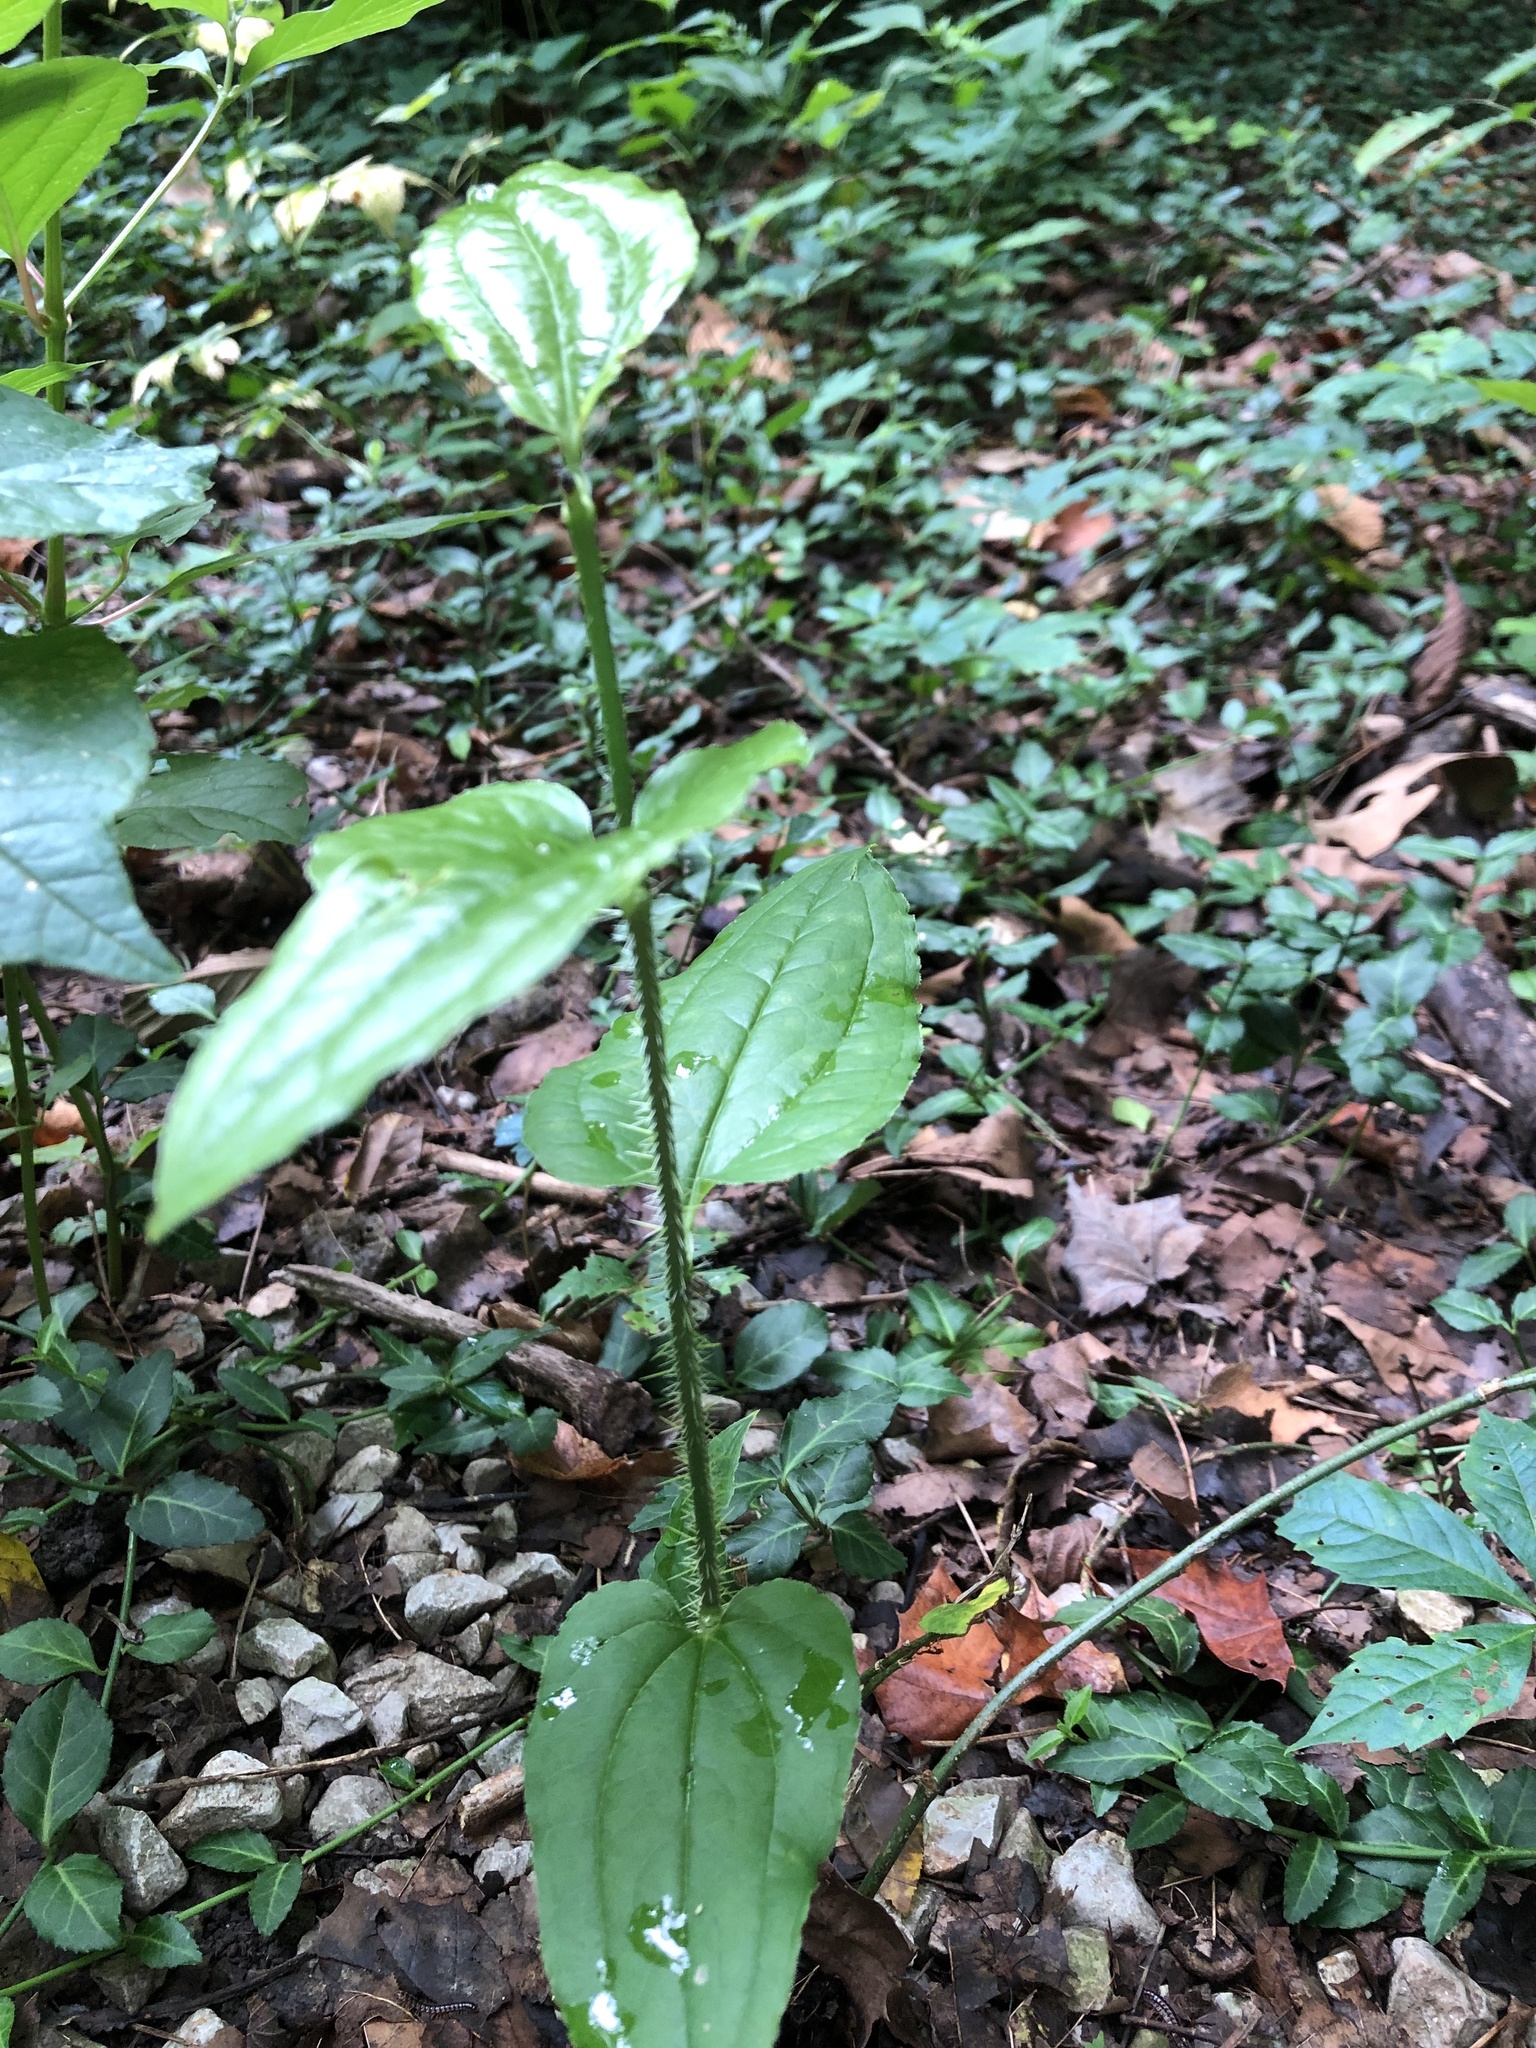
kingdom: Plantae
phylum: Tracheophyta
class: Liliopsida
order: Liliales
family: Smilacaceae
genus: Smilax
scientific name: Smilax tamnoides
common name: Hellfetter
